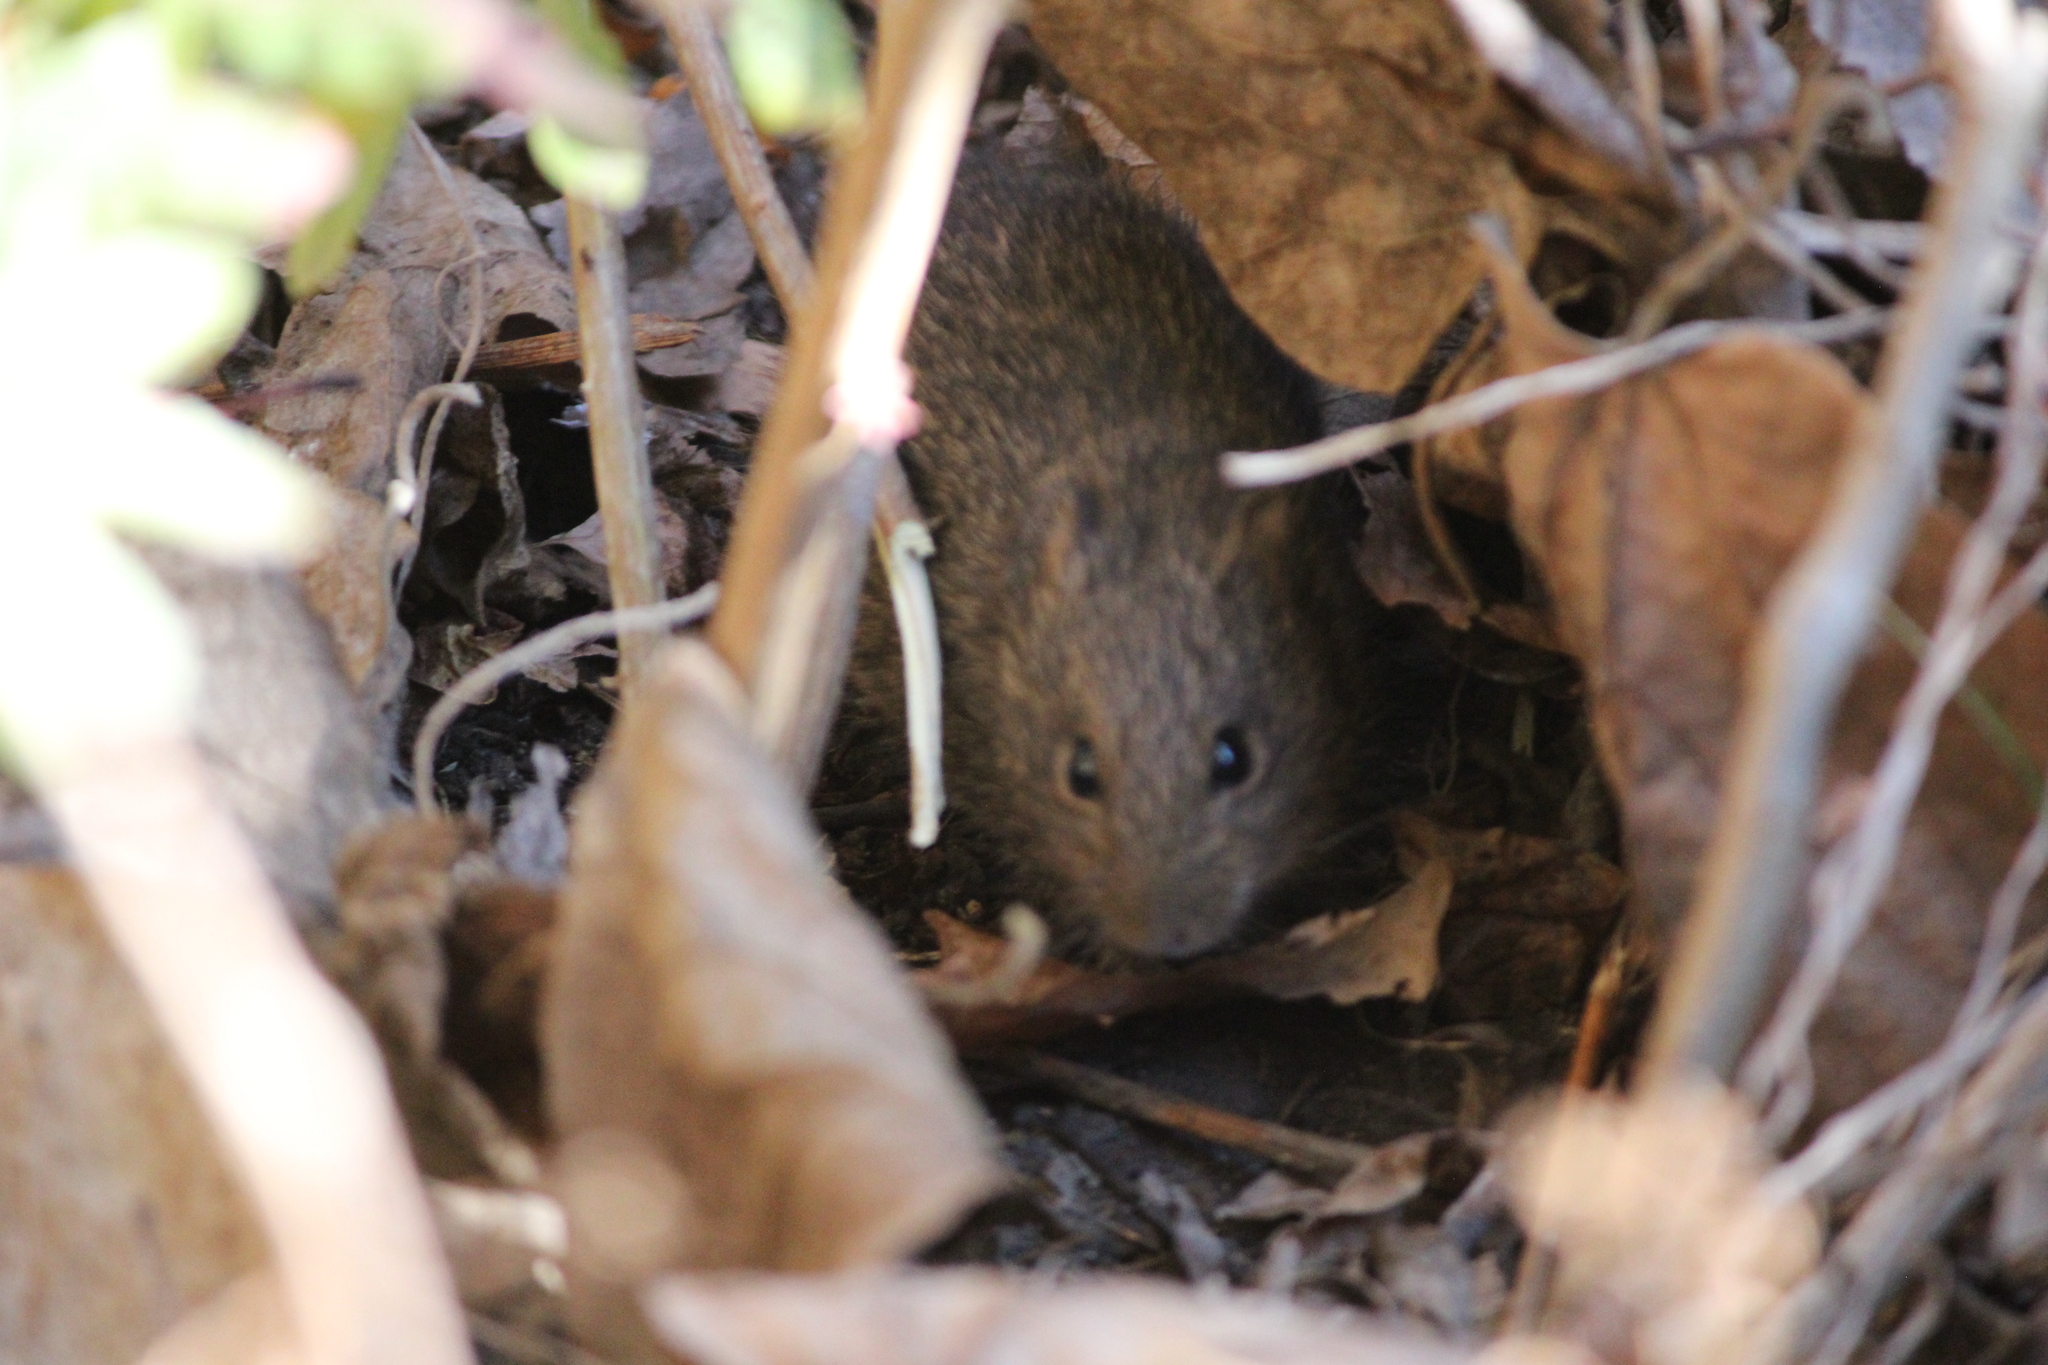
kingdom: Animalia
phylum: Chordata
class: Mammalia
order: Rodentia
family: Cricetidae
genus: Sigmodon
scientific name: Sigmodon hispidus
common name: Hispid cotton rat
